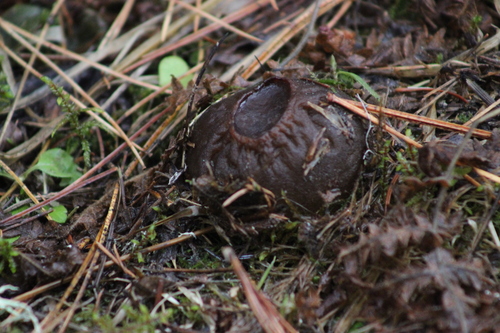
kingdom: Fungi
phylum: Ascomycota
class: Pezizomycetes
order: Pezizales
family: Sarcosomataceae
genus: Sarcosoma
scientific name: Sarcosoma globosum
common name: Charred-pancake cup
